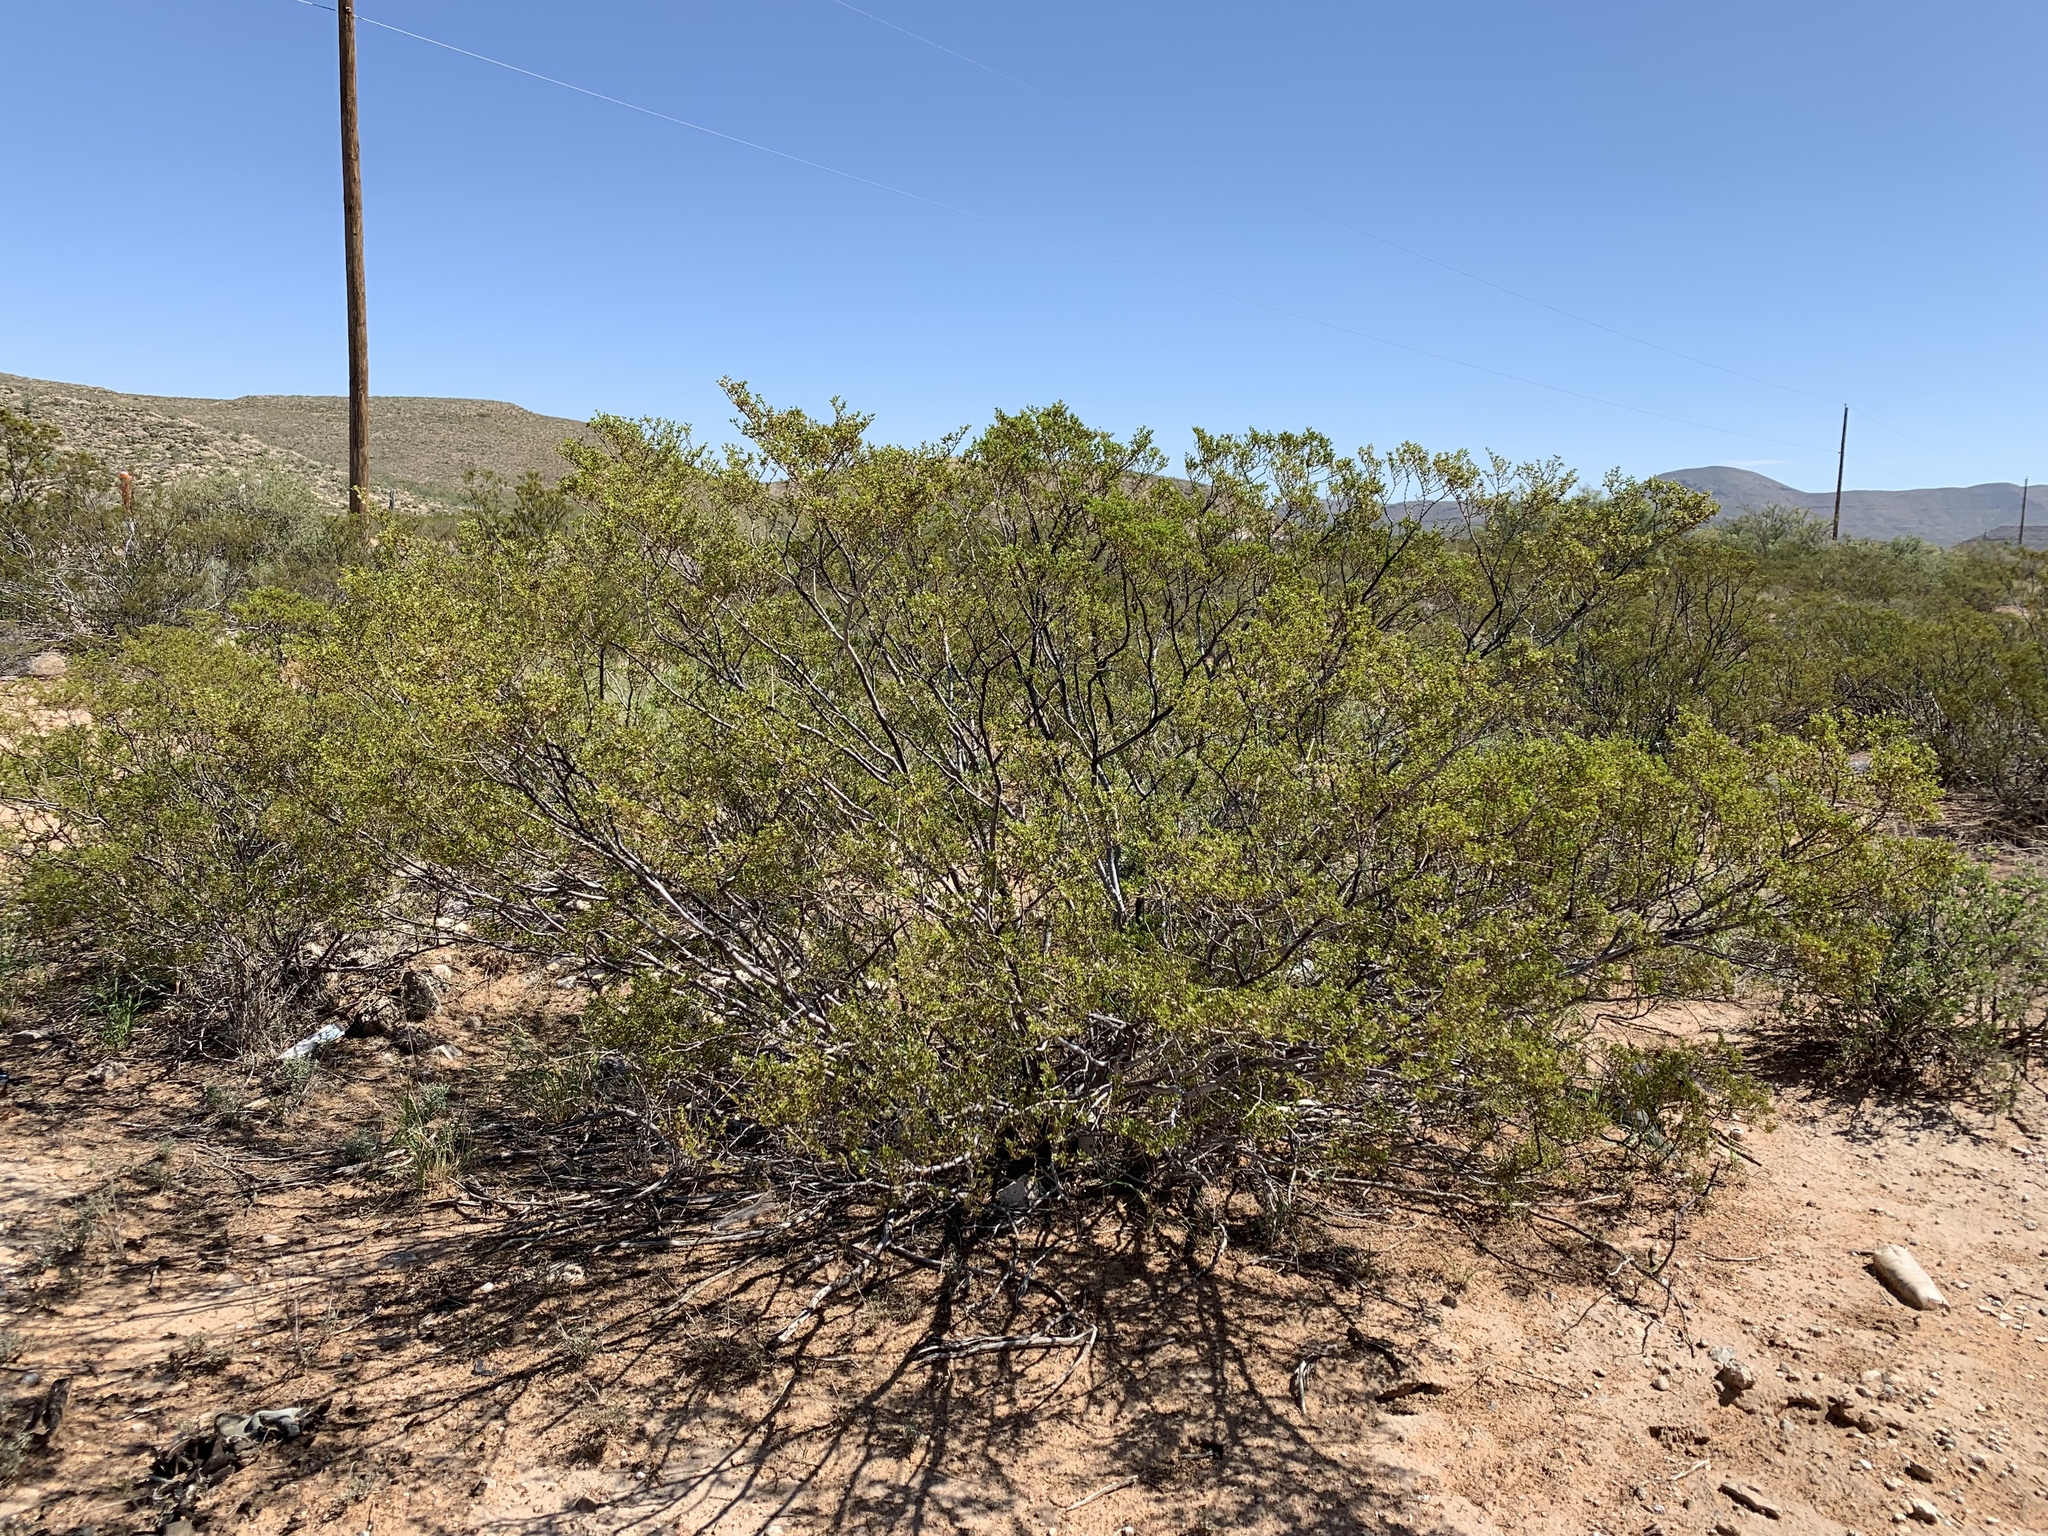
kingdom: Plantae
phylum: Tracheophyta
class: Magnoliopsida
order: Zygophyllales
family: Zygophyllaceae
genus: Larrea
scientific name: Larrea tridentata
